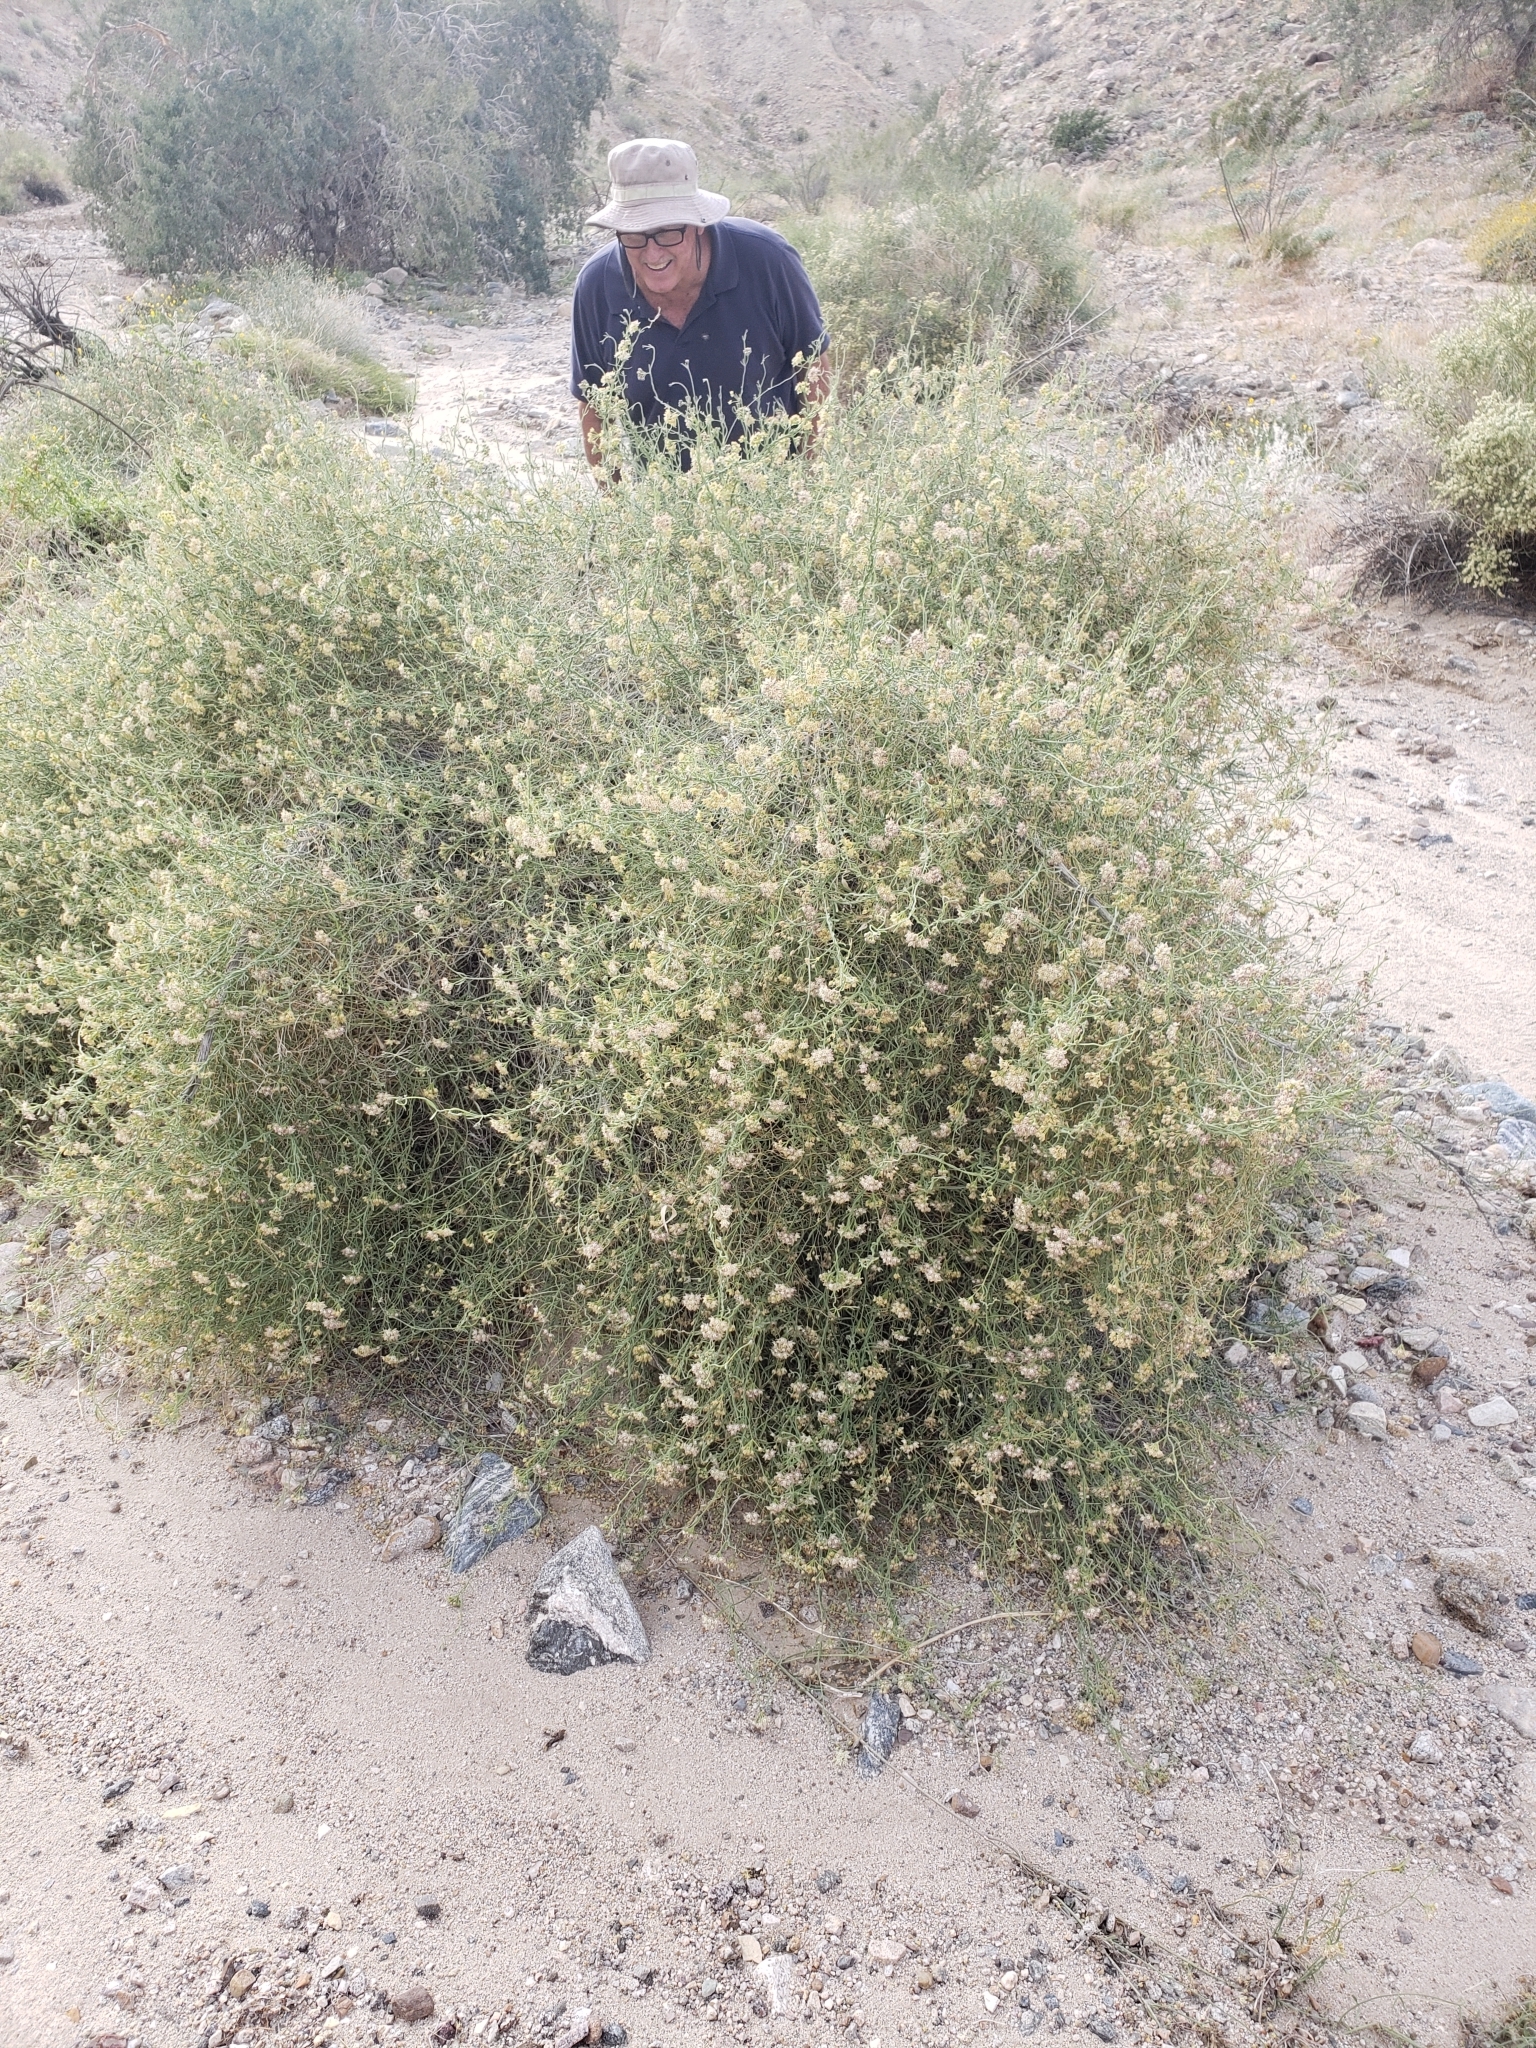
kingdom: Plantae
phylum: Tracheophyta
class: Magnoliopsida
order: Gentianales
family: Apocynaceae
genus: Funastrum
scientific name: Funastrum hirtellum
